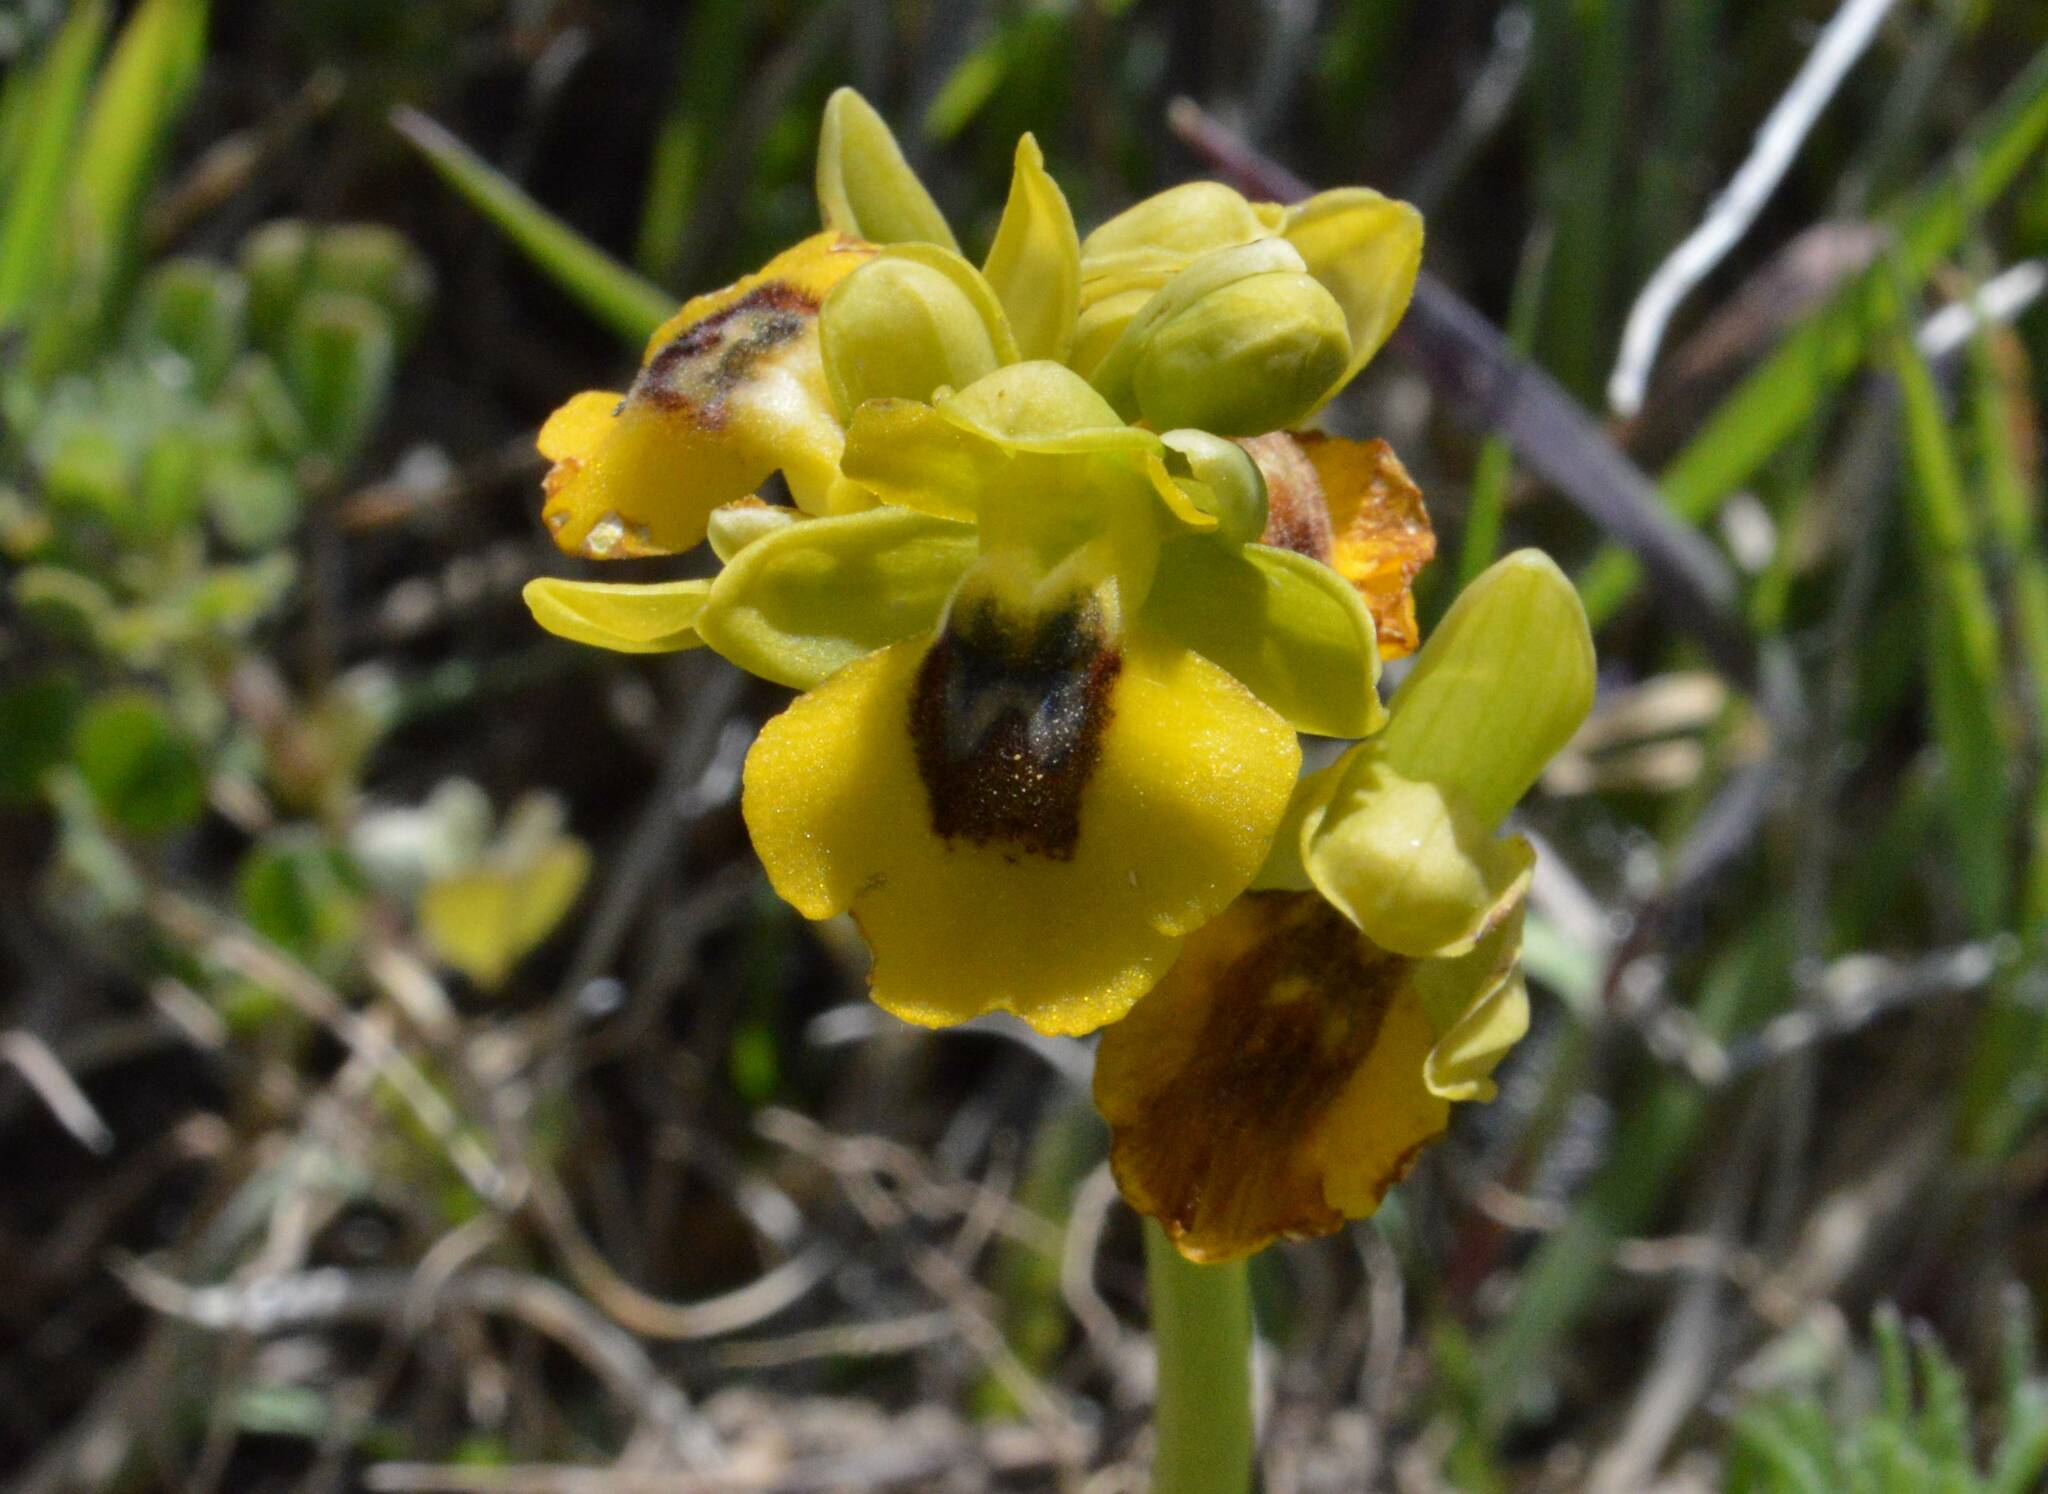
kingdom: Plantae
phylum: Tracheophyta
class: Liliopsida
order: Asparagales
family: Orchidaceae
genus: Ophrys
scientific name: Ophrys lutea
